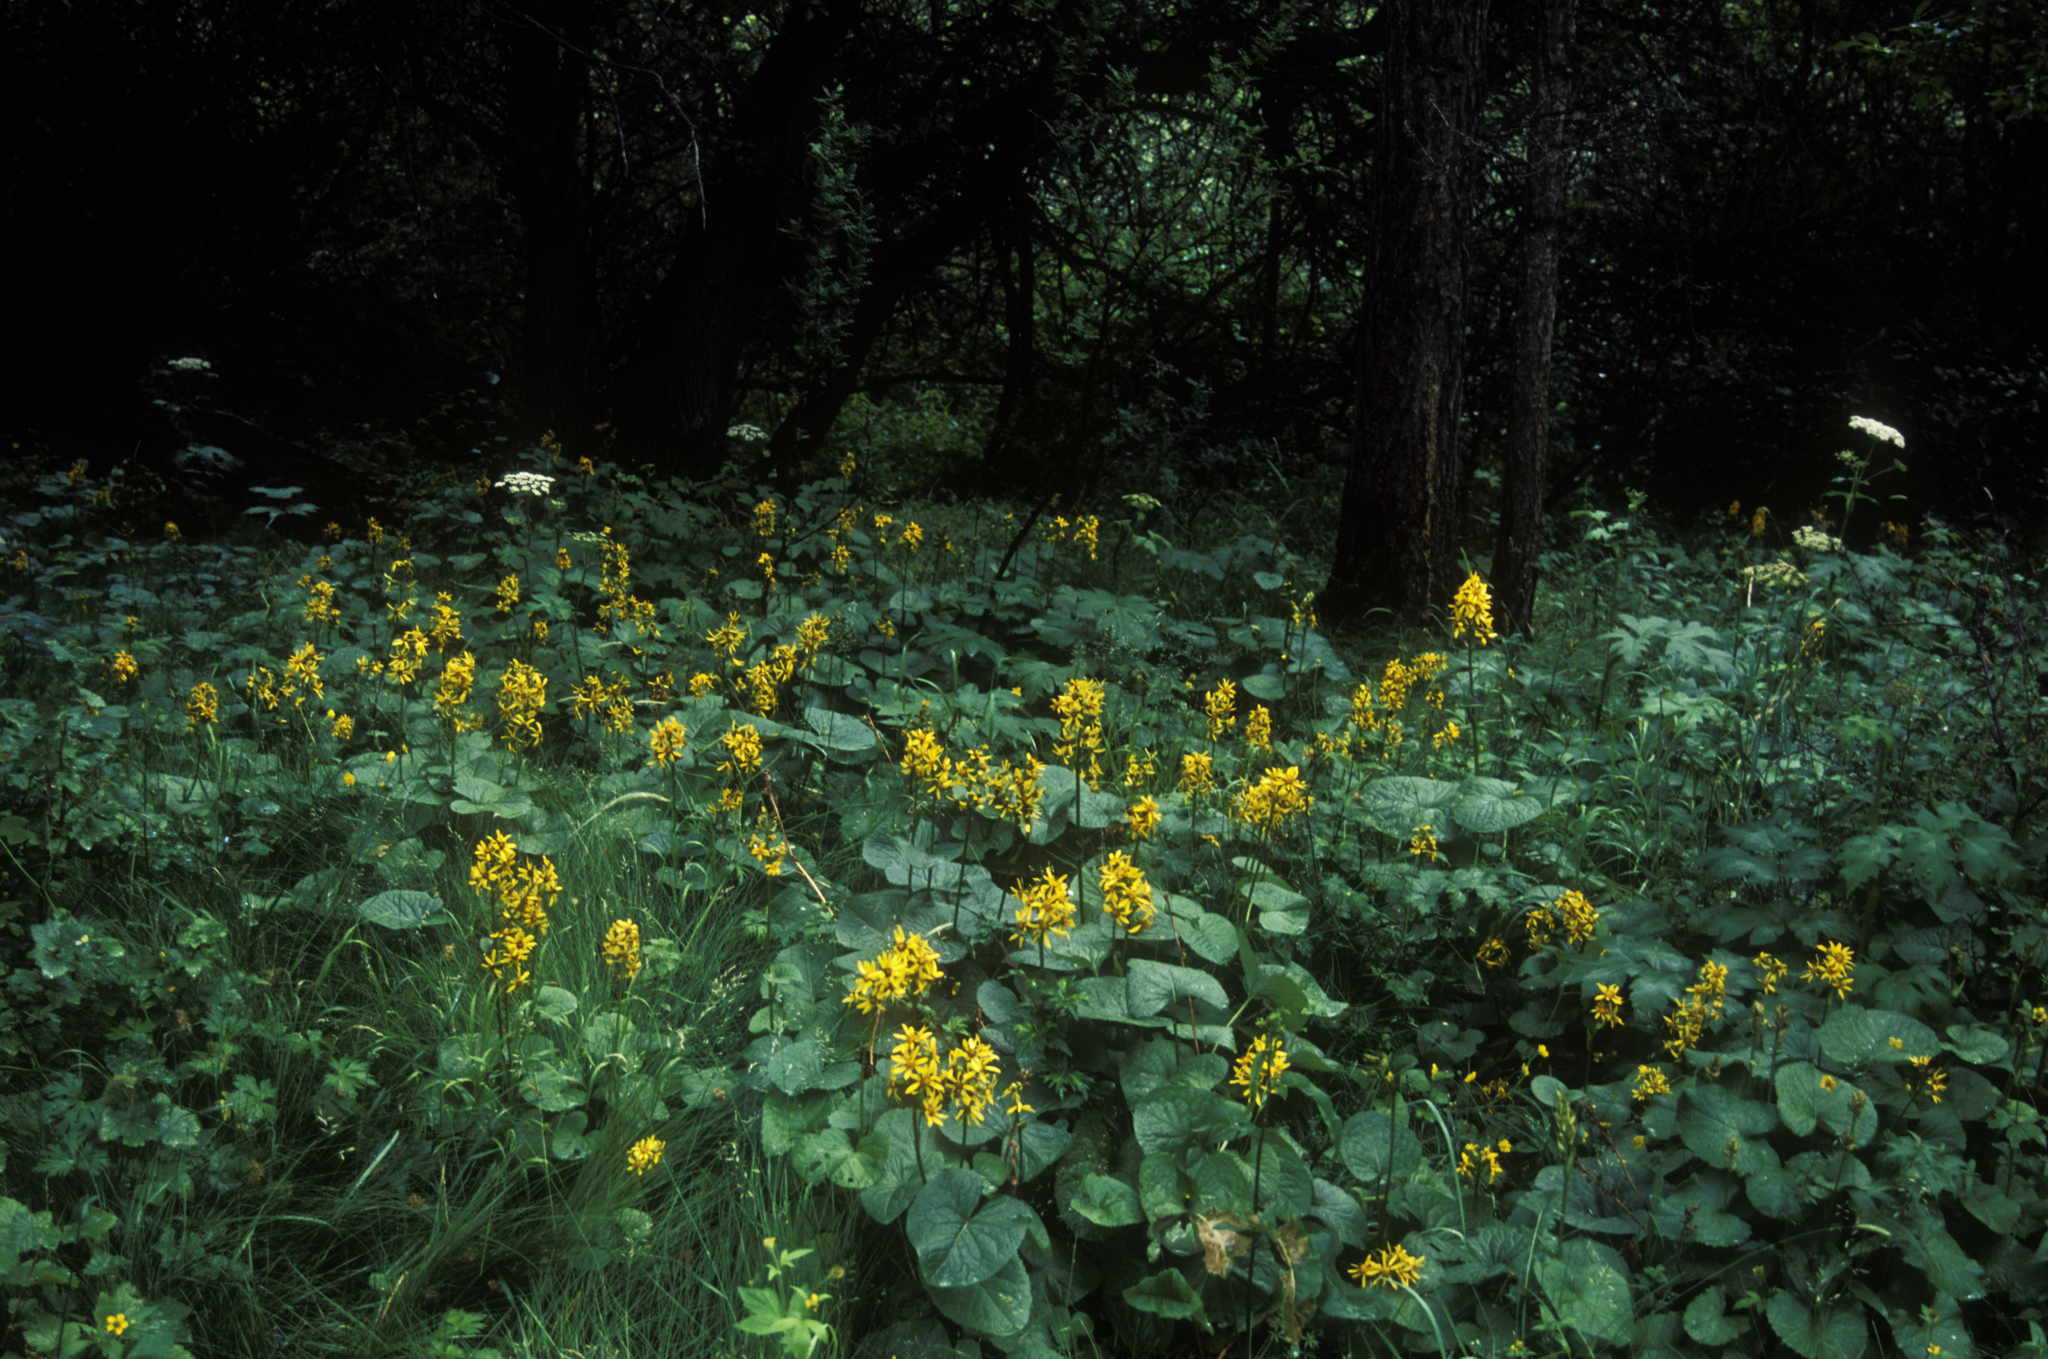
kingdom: Plantae
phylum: Tracheophyta
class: Magnoliopsida
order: Asterales
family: Asteraceae
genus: Ligularia
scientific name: Ligularia sibirica
